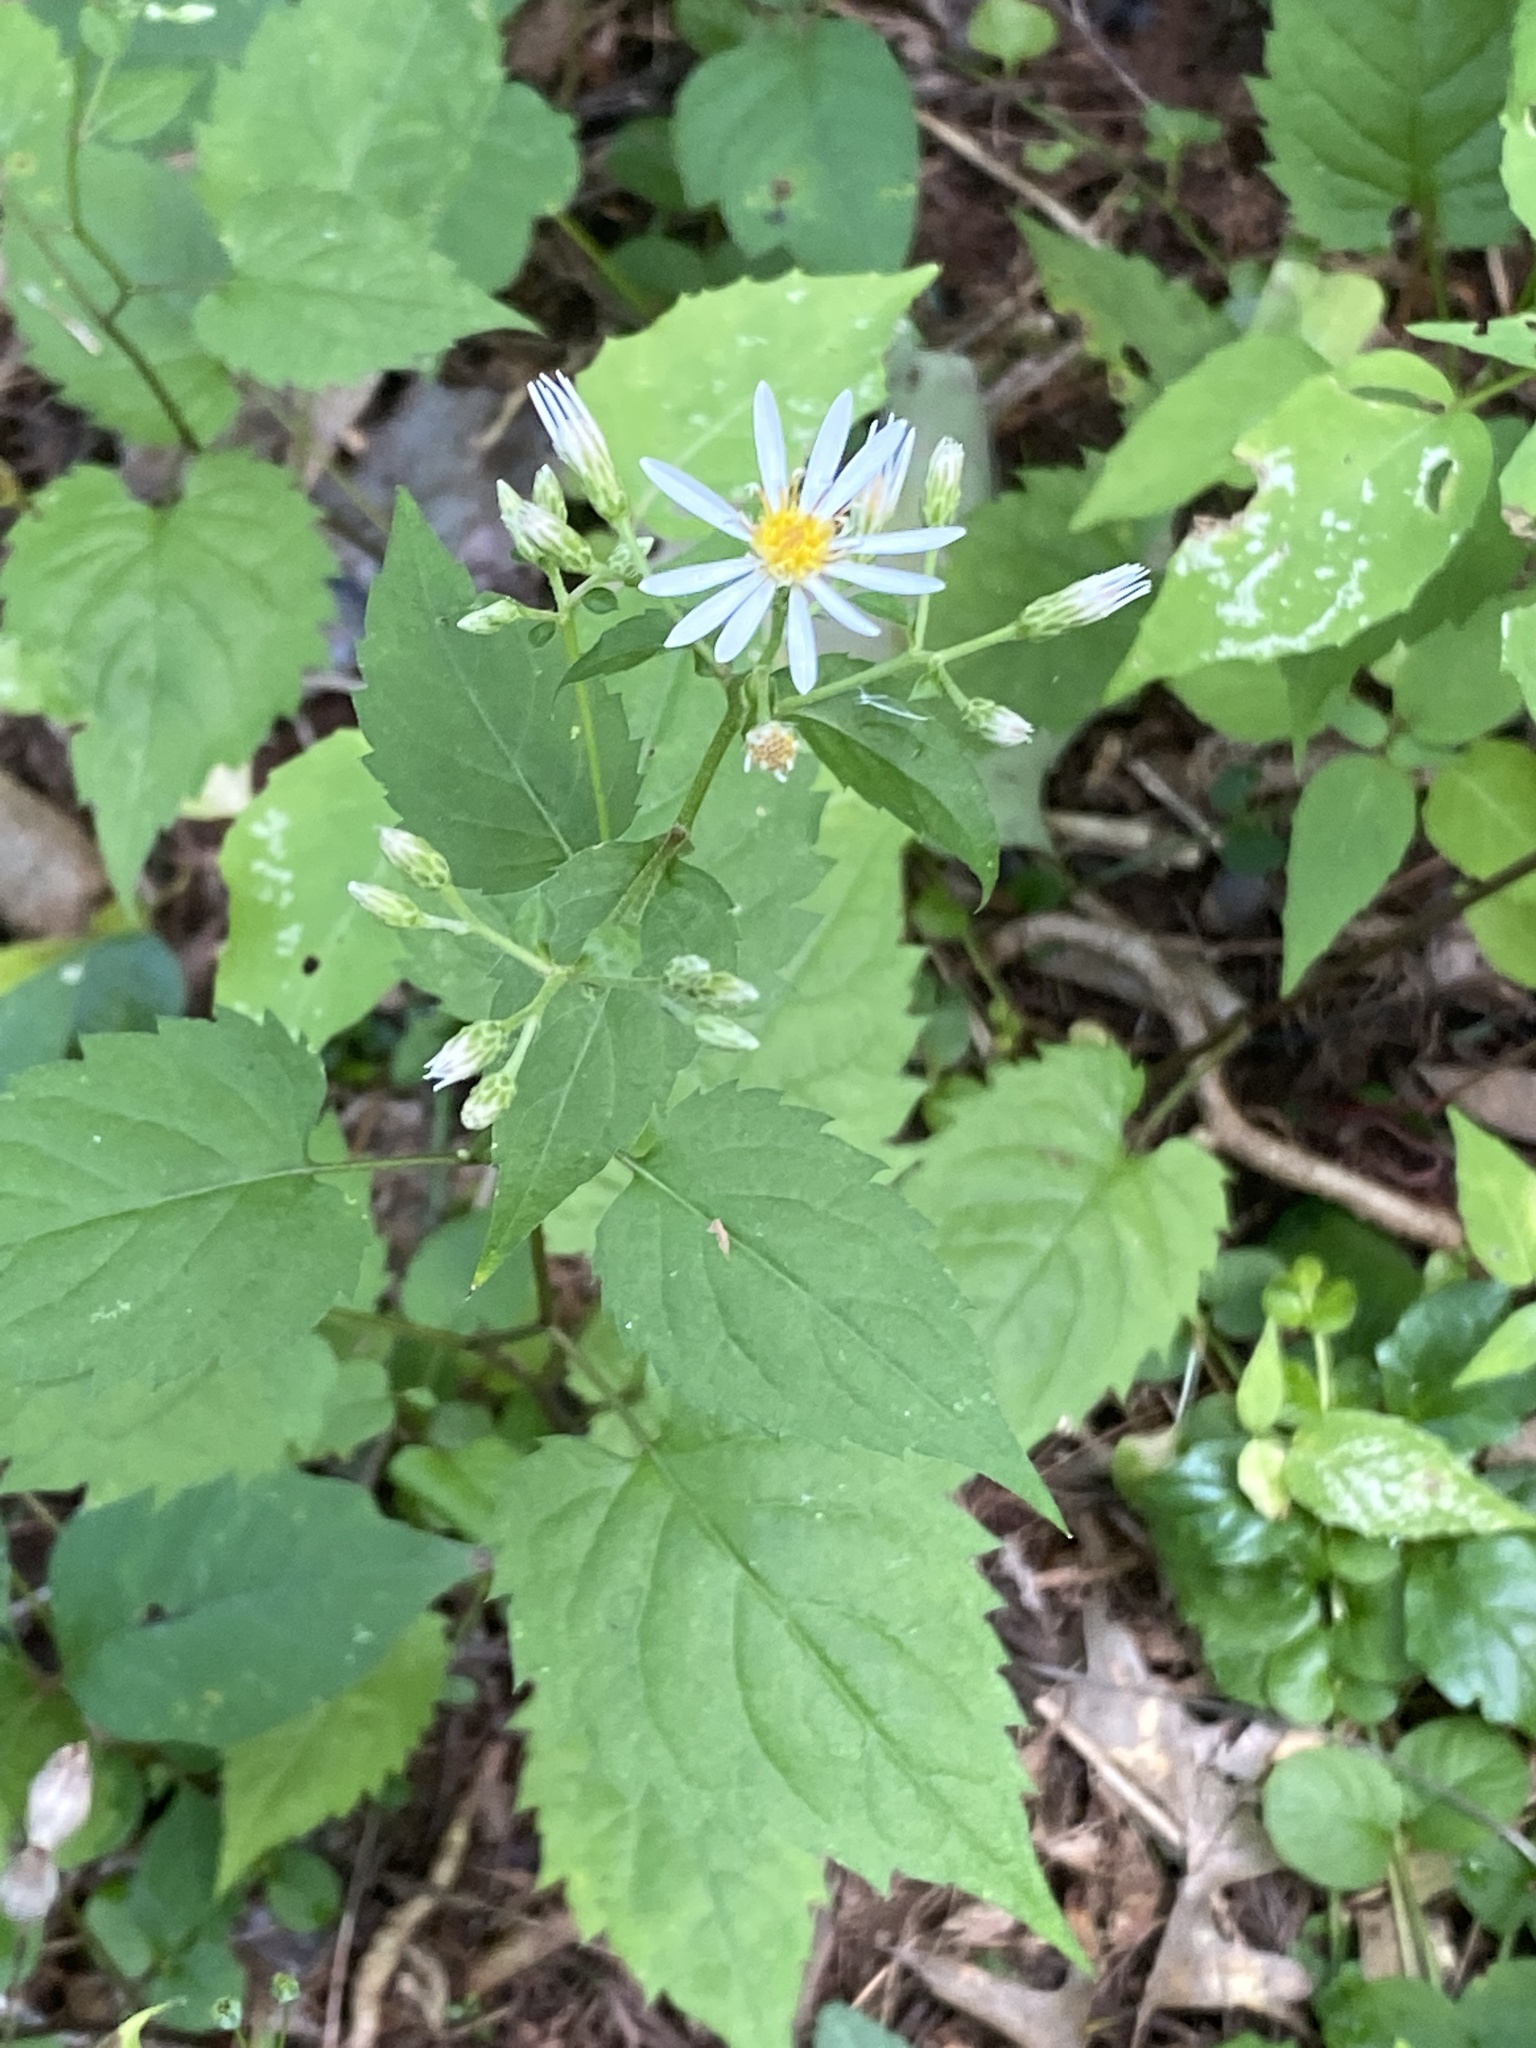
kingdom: Plantae
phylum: Tracheophyta
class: Magnoliopsida
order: Asterales
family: Asteraceae
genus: Eurybia
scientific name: Eurybia divaricata
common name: White wood aster
